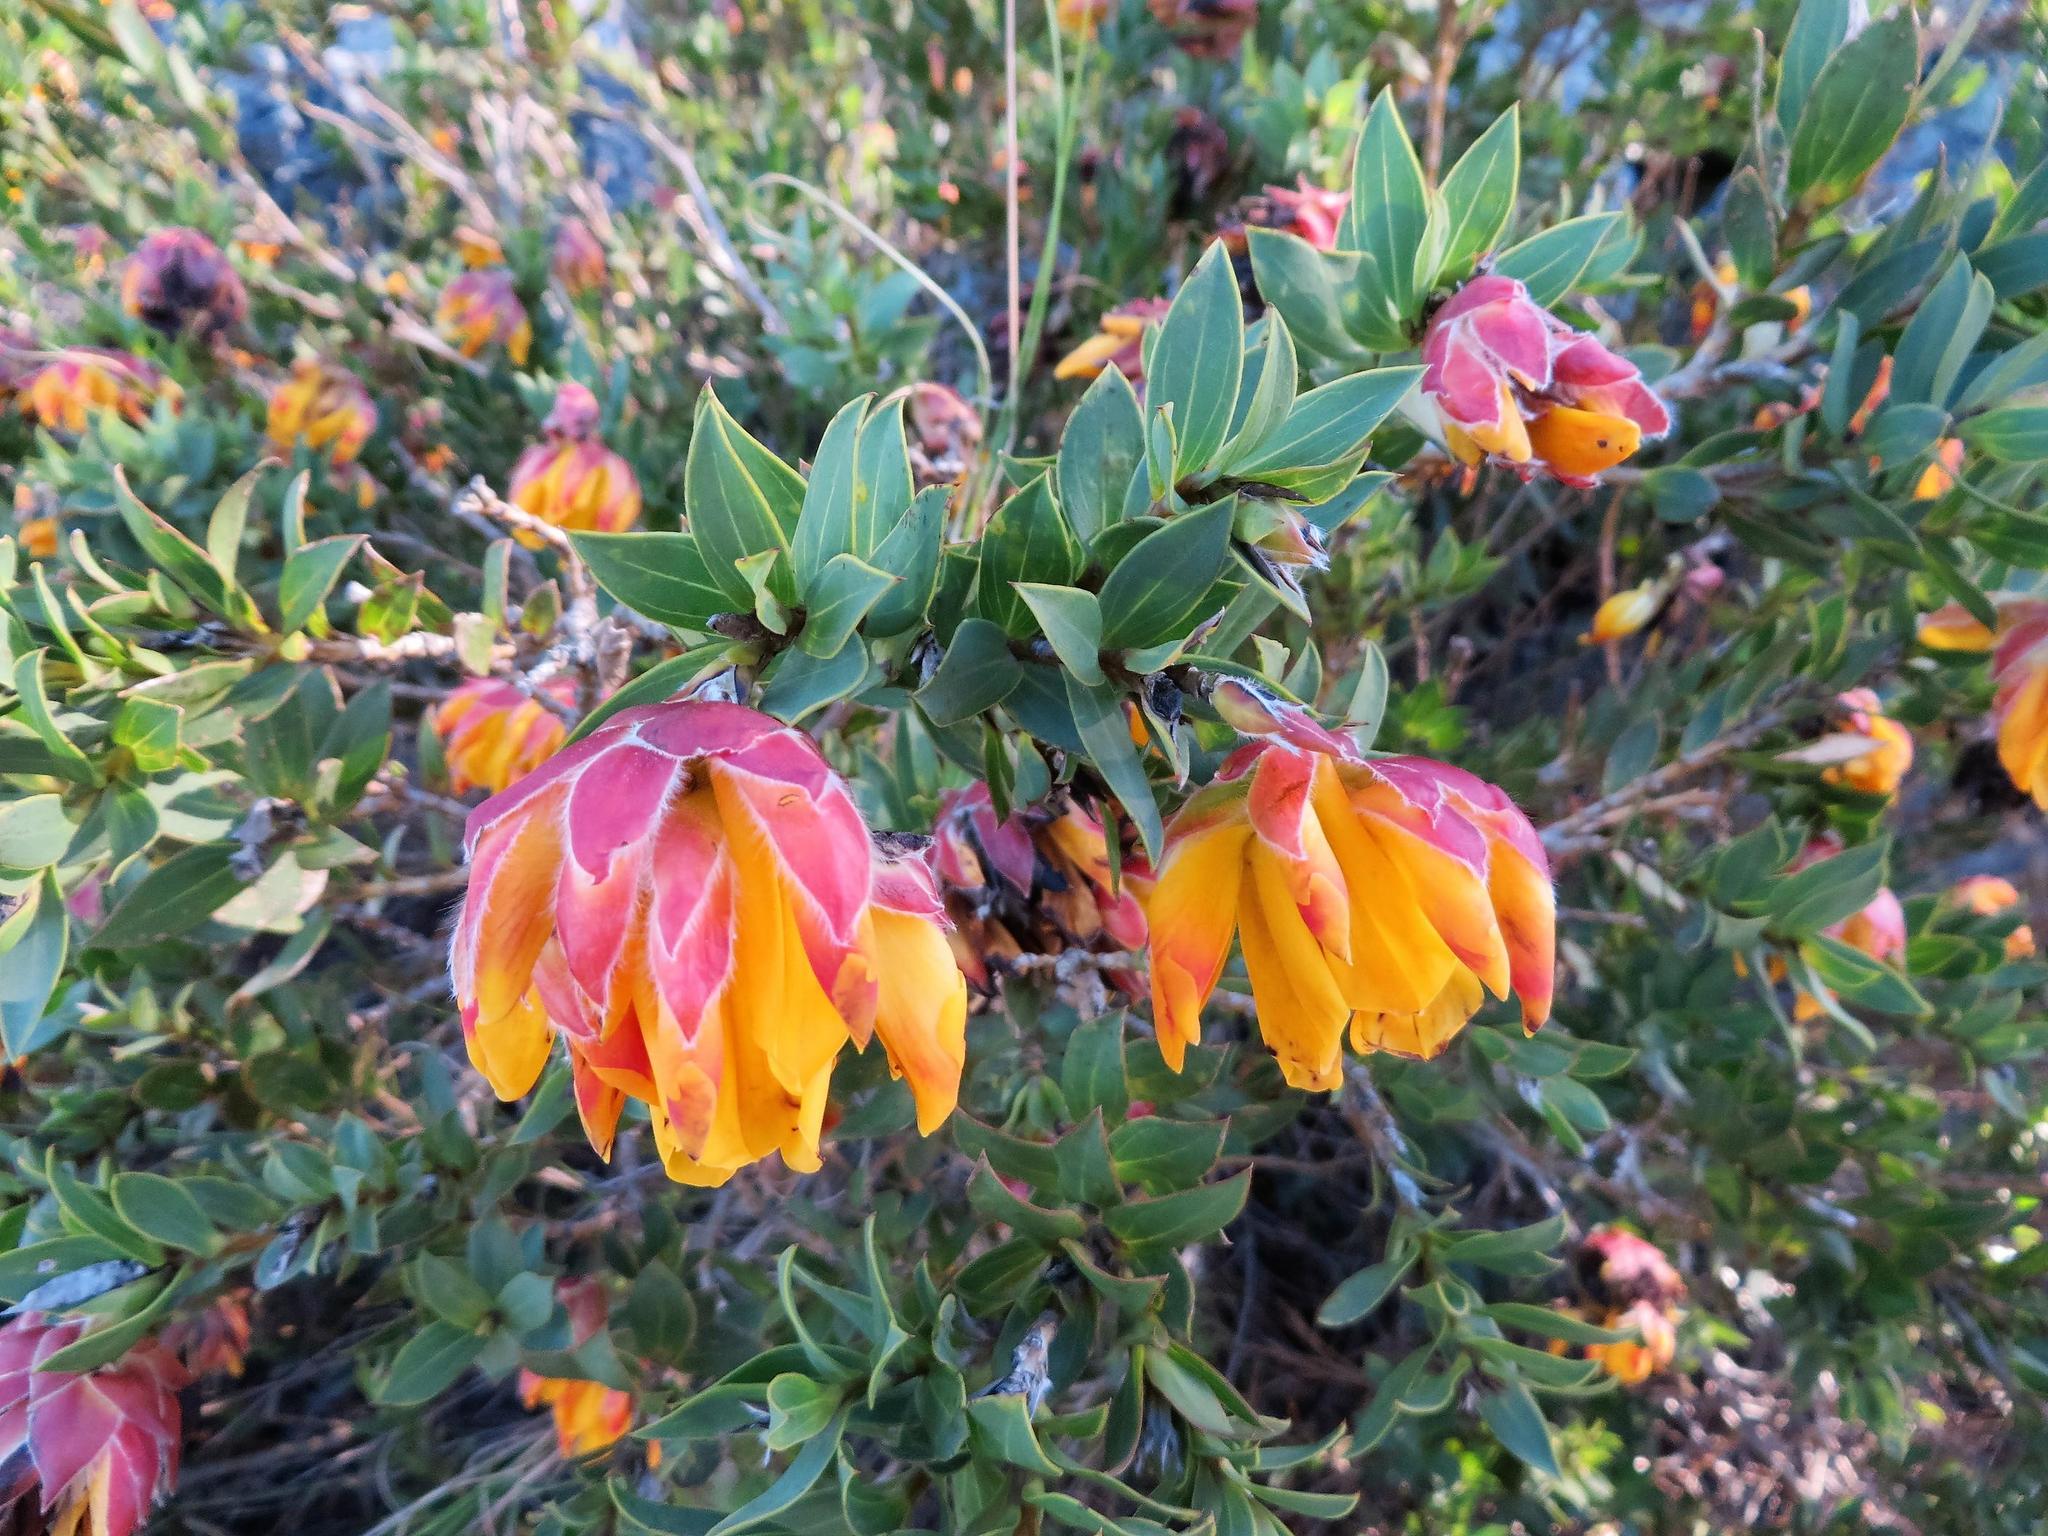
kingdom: Plantae
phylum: Tracheophyta
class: Magnoliopsida
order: Fabales
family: Fabaceae
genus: Liparia
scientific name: Liparia splendens
